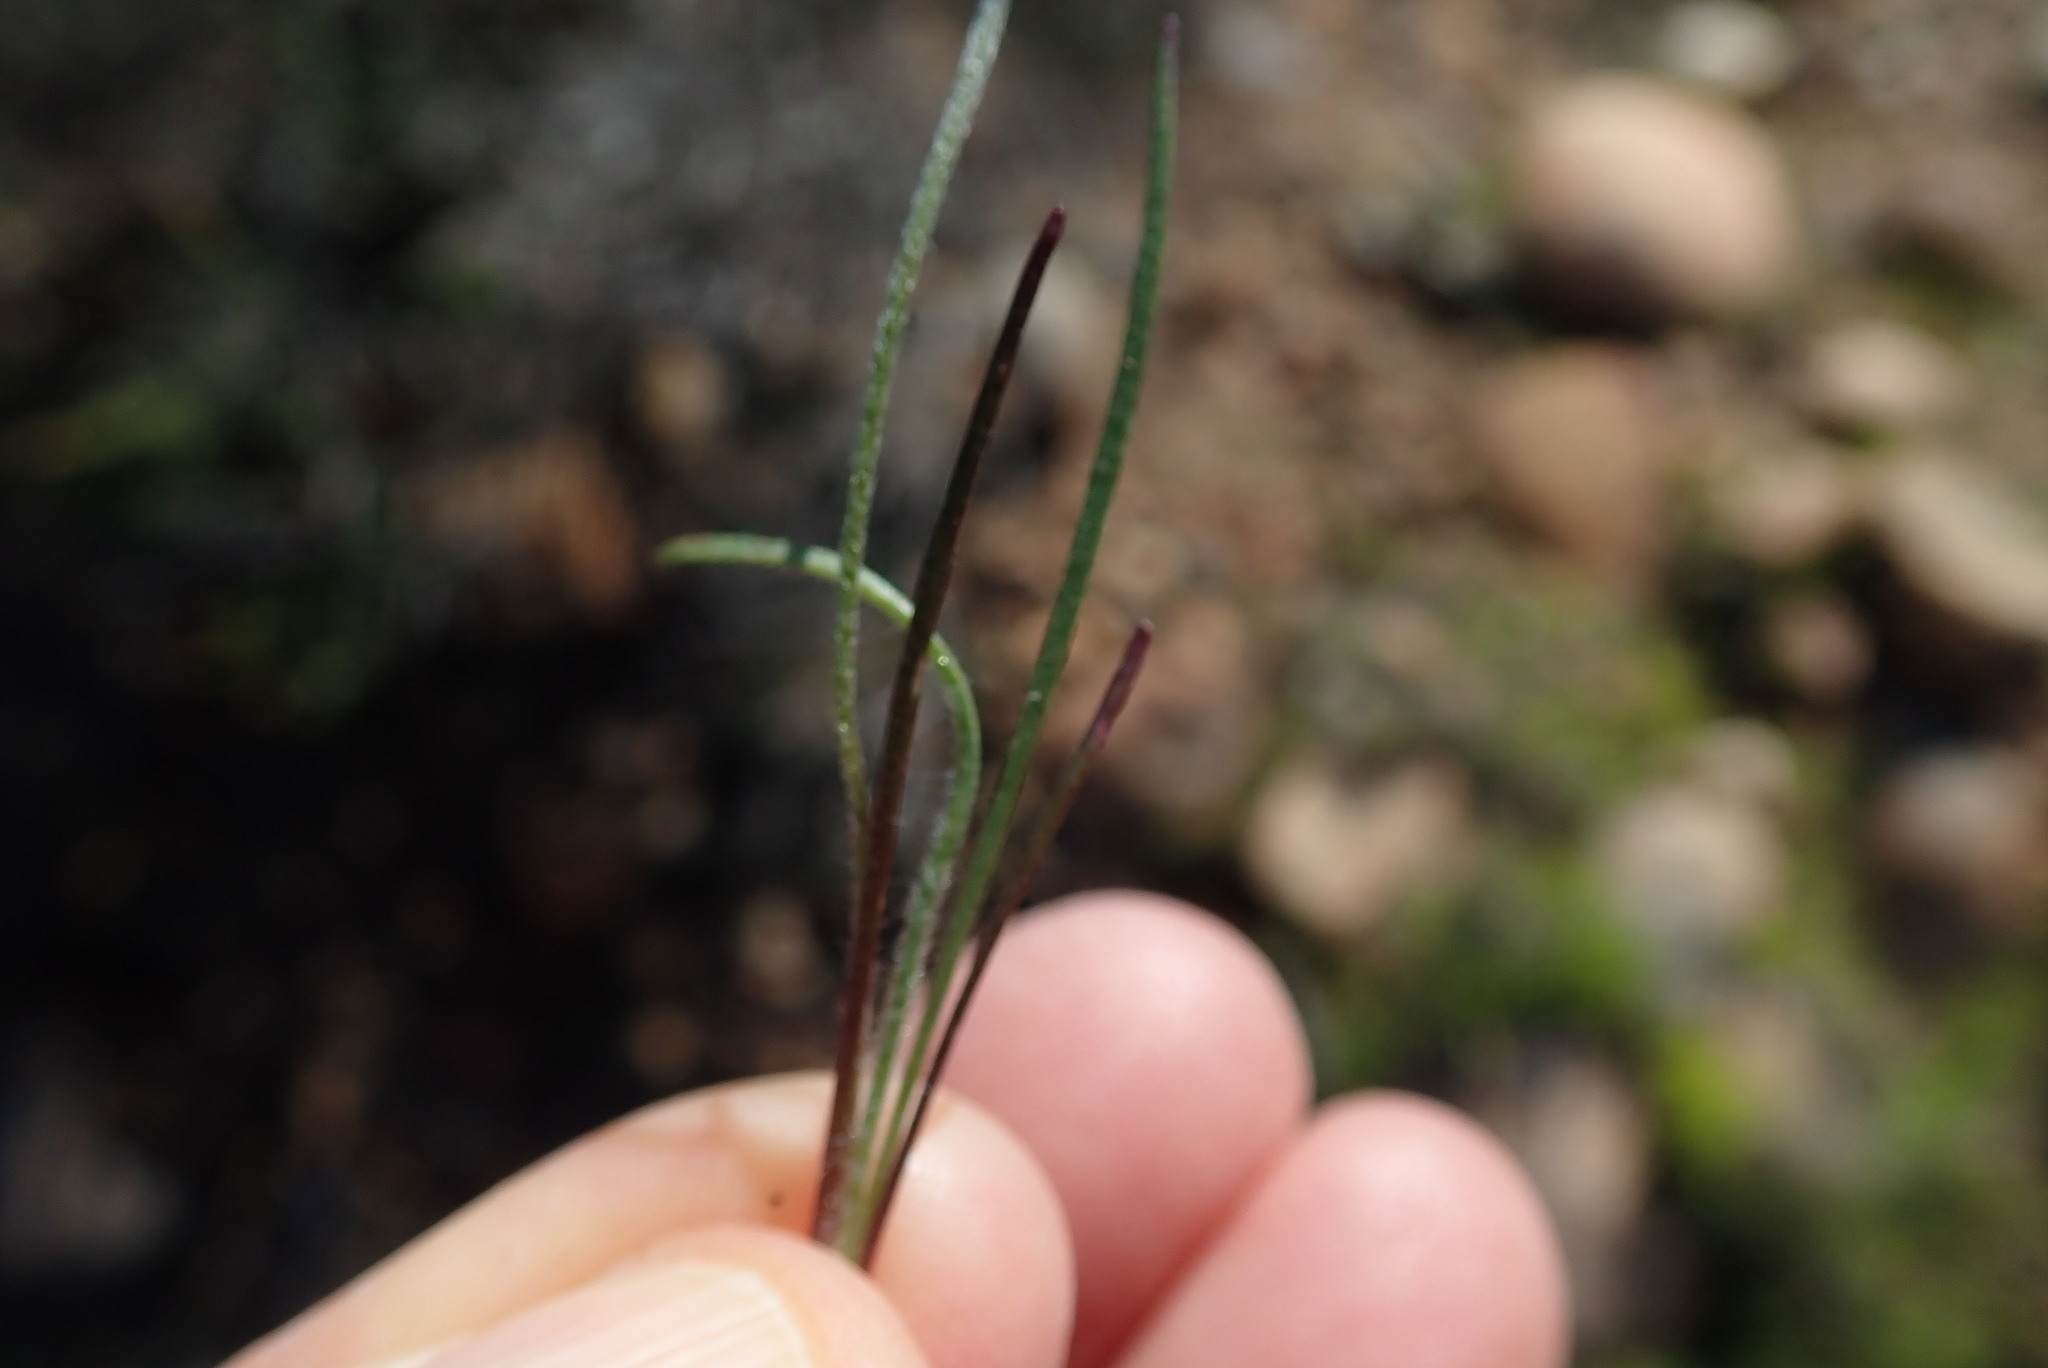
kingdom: Plantae
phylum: Tracheophyta
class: Magnoliopsida
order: Lamiales
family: Plantaginaceae
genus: Plantago
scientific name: Plantago erecta
